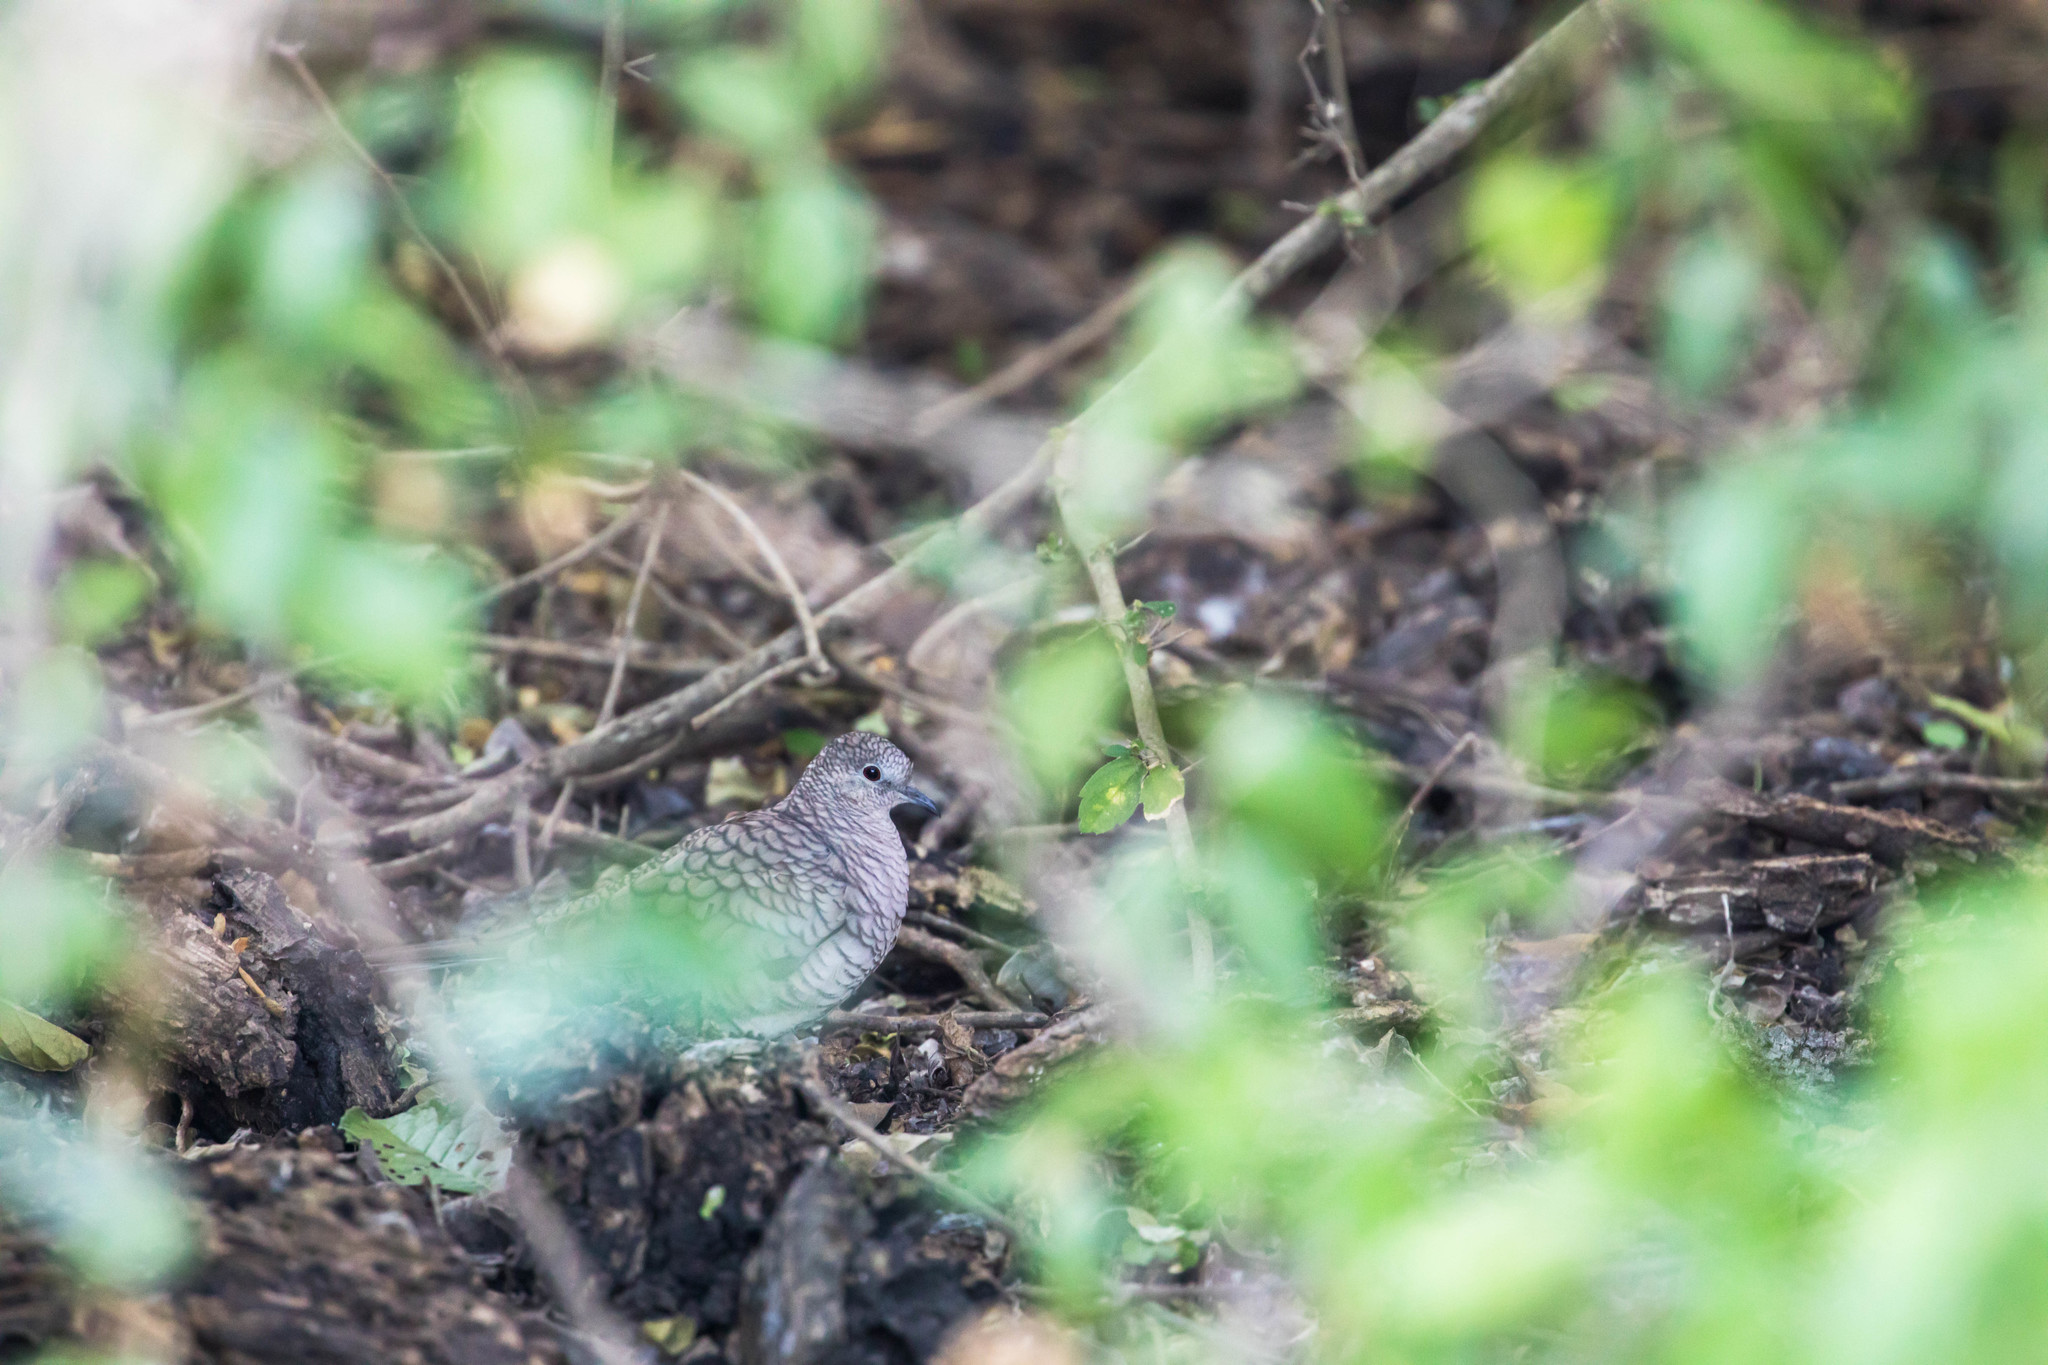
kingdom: Animalia
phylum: Chordata
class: Aves
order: Columbiformes
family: Columbidae
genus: Columbina
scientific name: Columbina inca
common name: Inca dove
